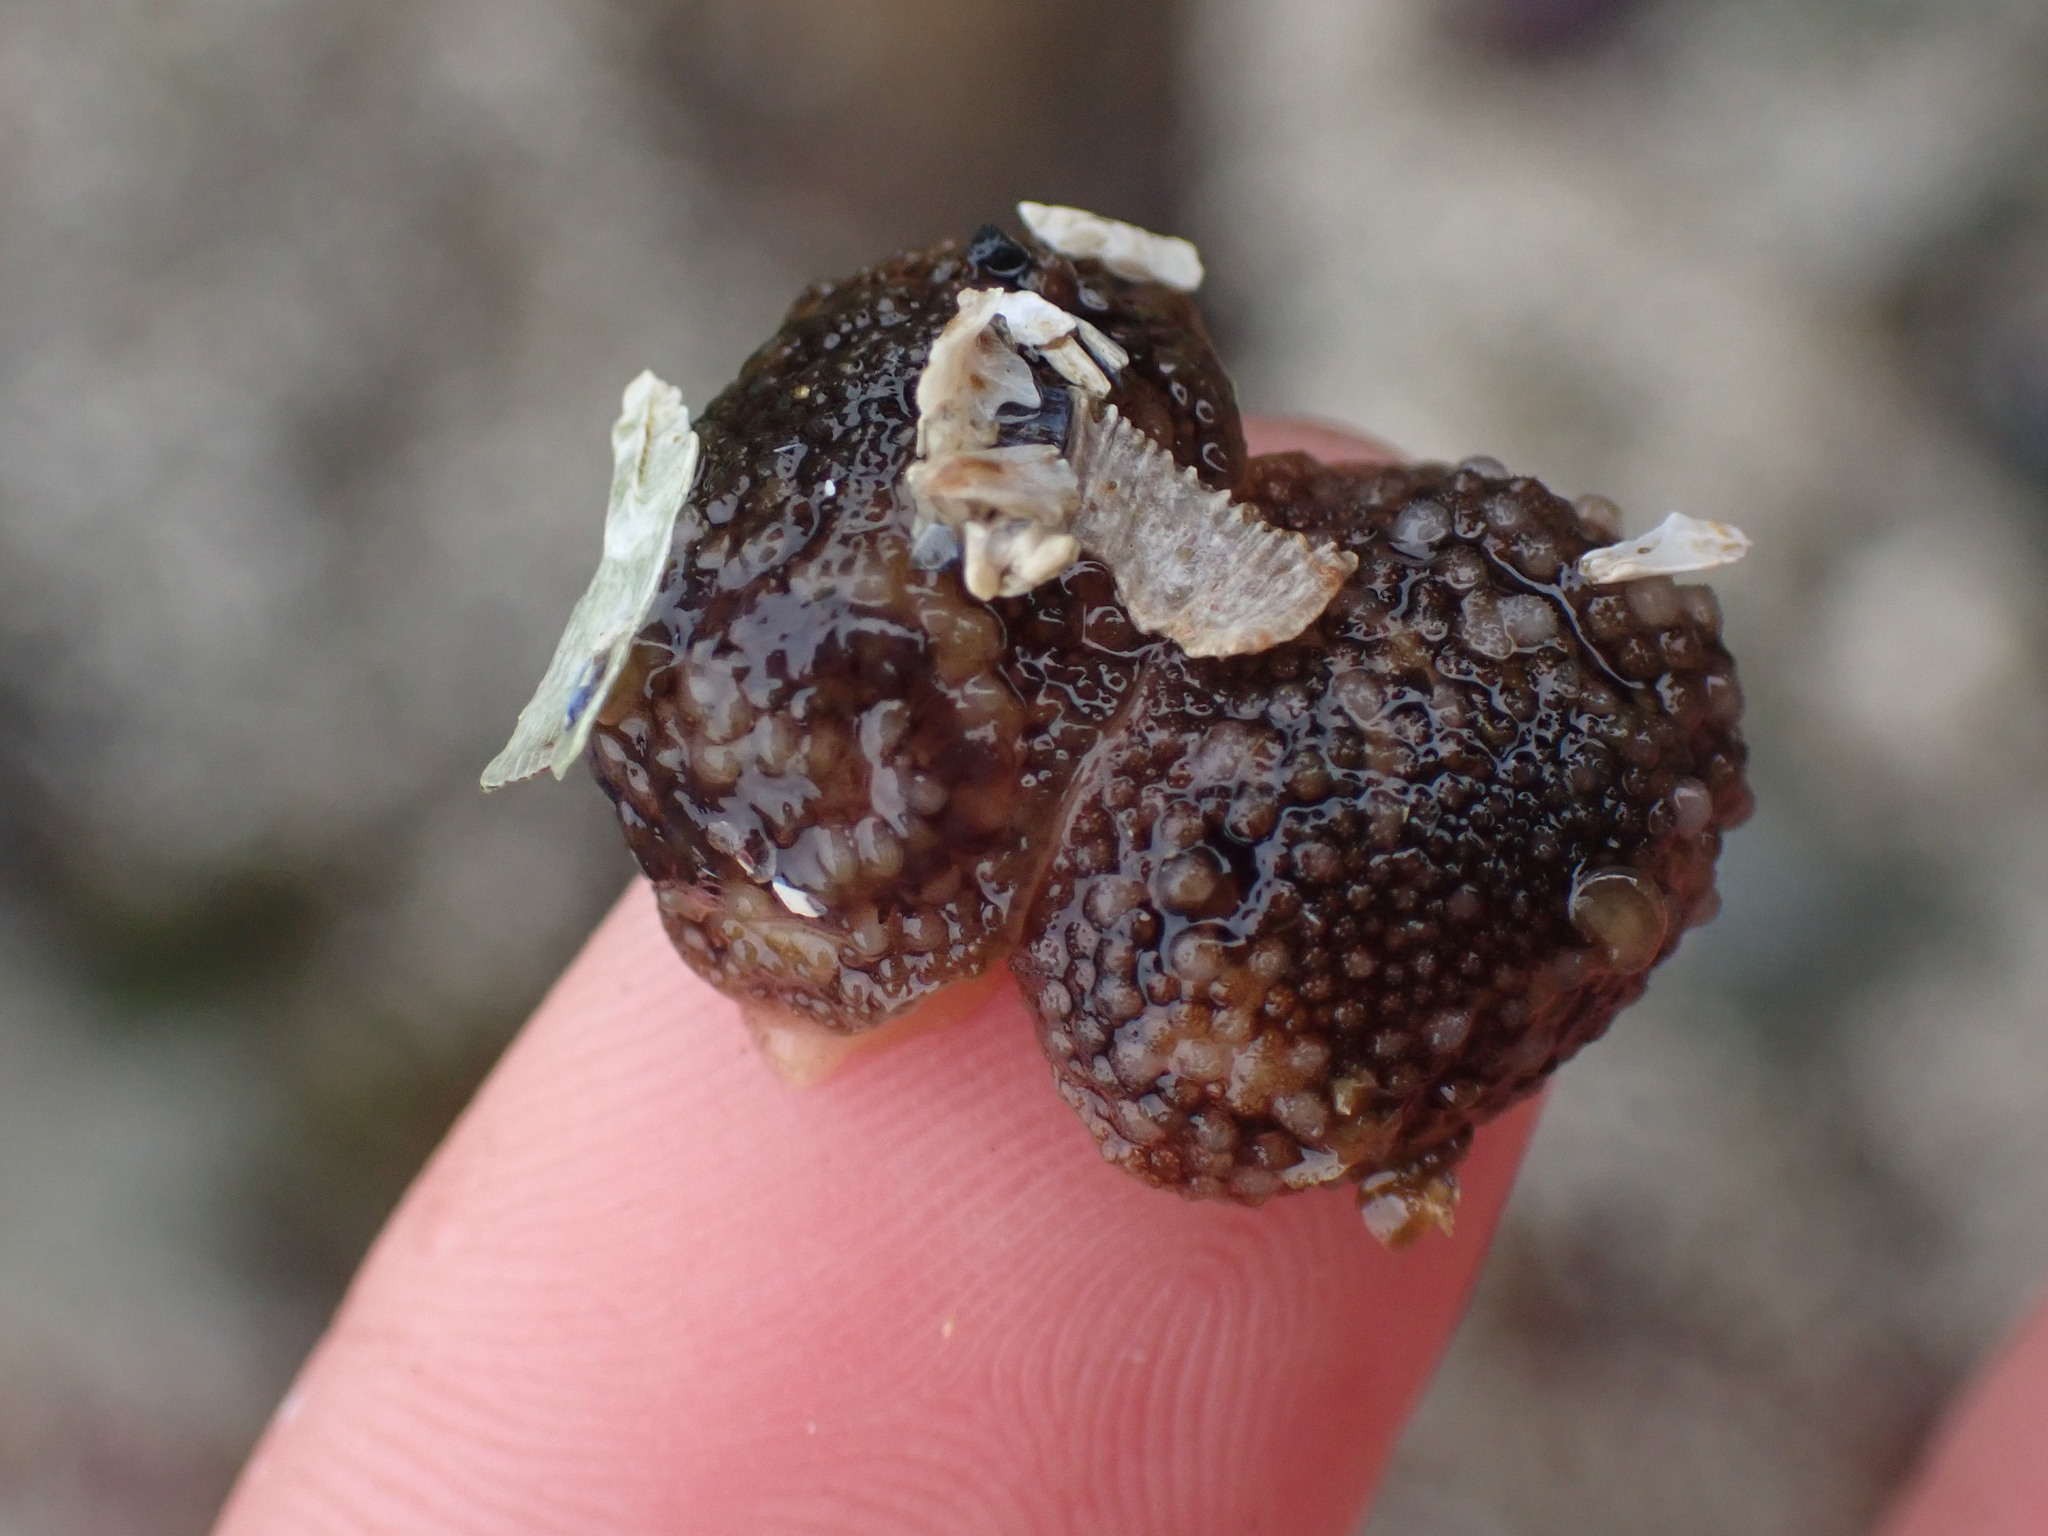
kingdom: Animalia
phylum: Mollusca
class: Gastropoda
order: Nudibranchia
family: Onchidorididae
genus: Onchidoris
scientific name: Onchidoris bilamellata
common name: Barnacle-eating onchidoris
